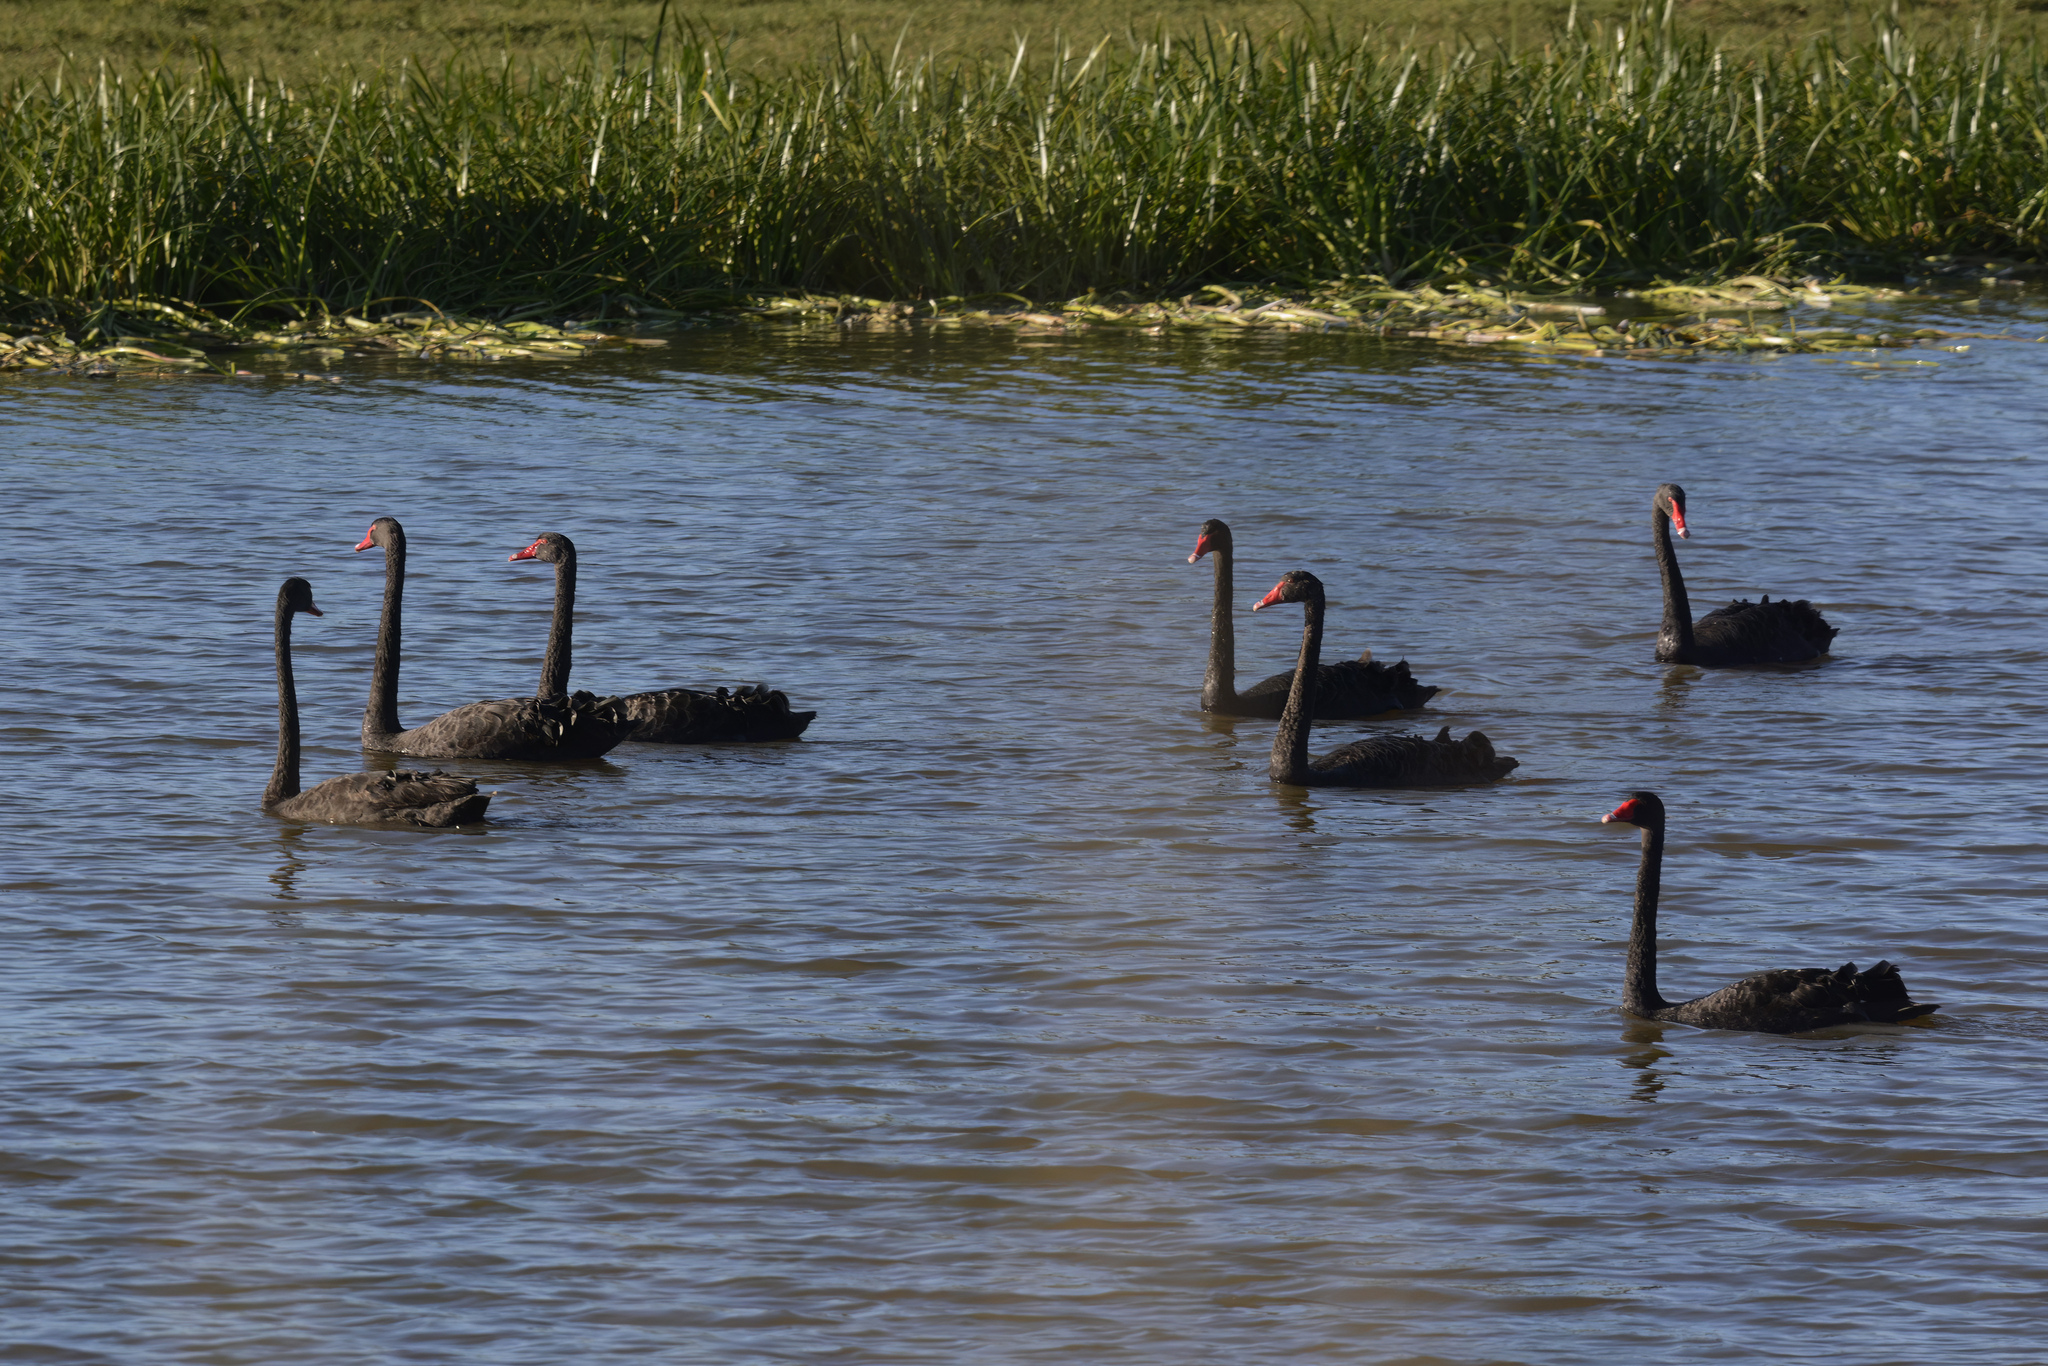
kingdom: Animalia
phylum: Chordata
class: Aves
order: Anseriformes
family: Anatidae
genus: Cygnus
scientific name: Cygnus atratus
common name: Black swan
